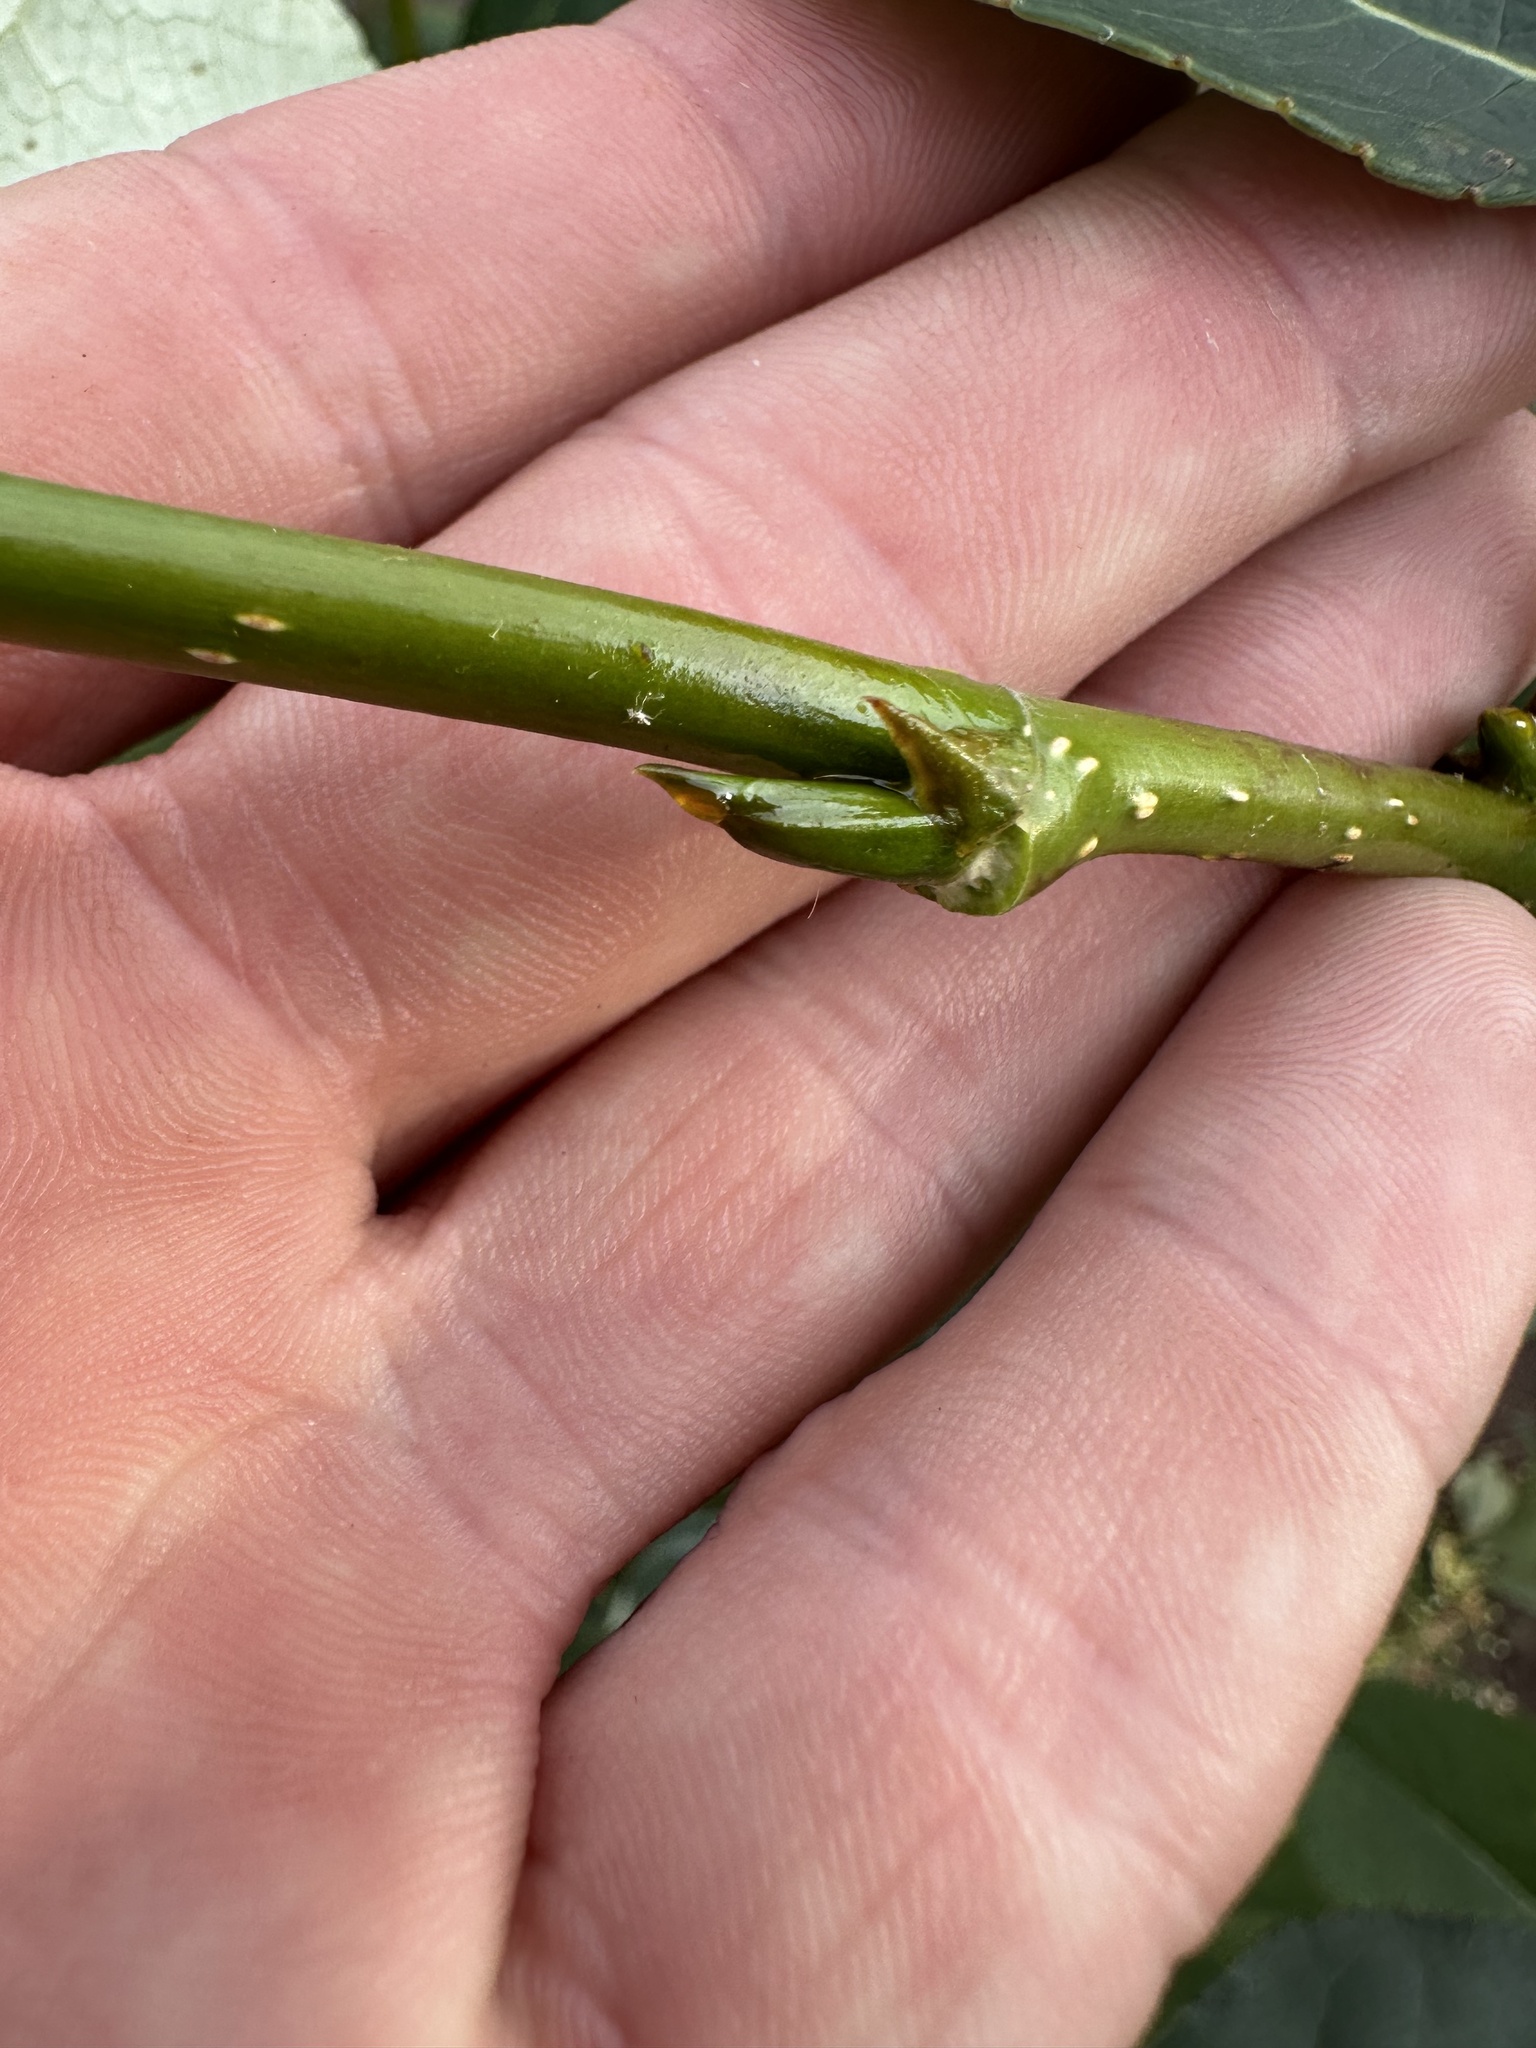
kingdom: Plantae
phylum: Tracheophyta
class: Magnoliopsida
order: Malpighiales
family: Salicaceae
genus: Populus
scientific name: Populus balsamifera
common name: Balsam poplar
